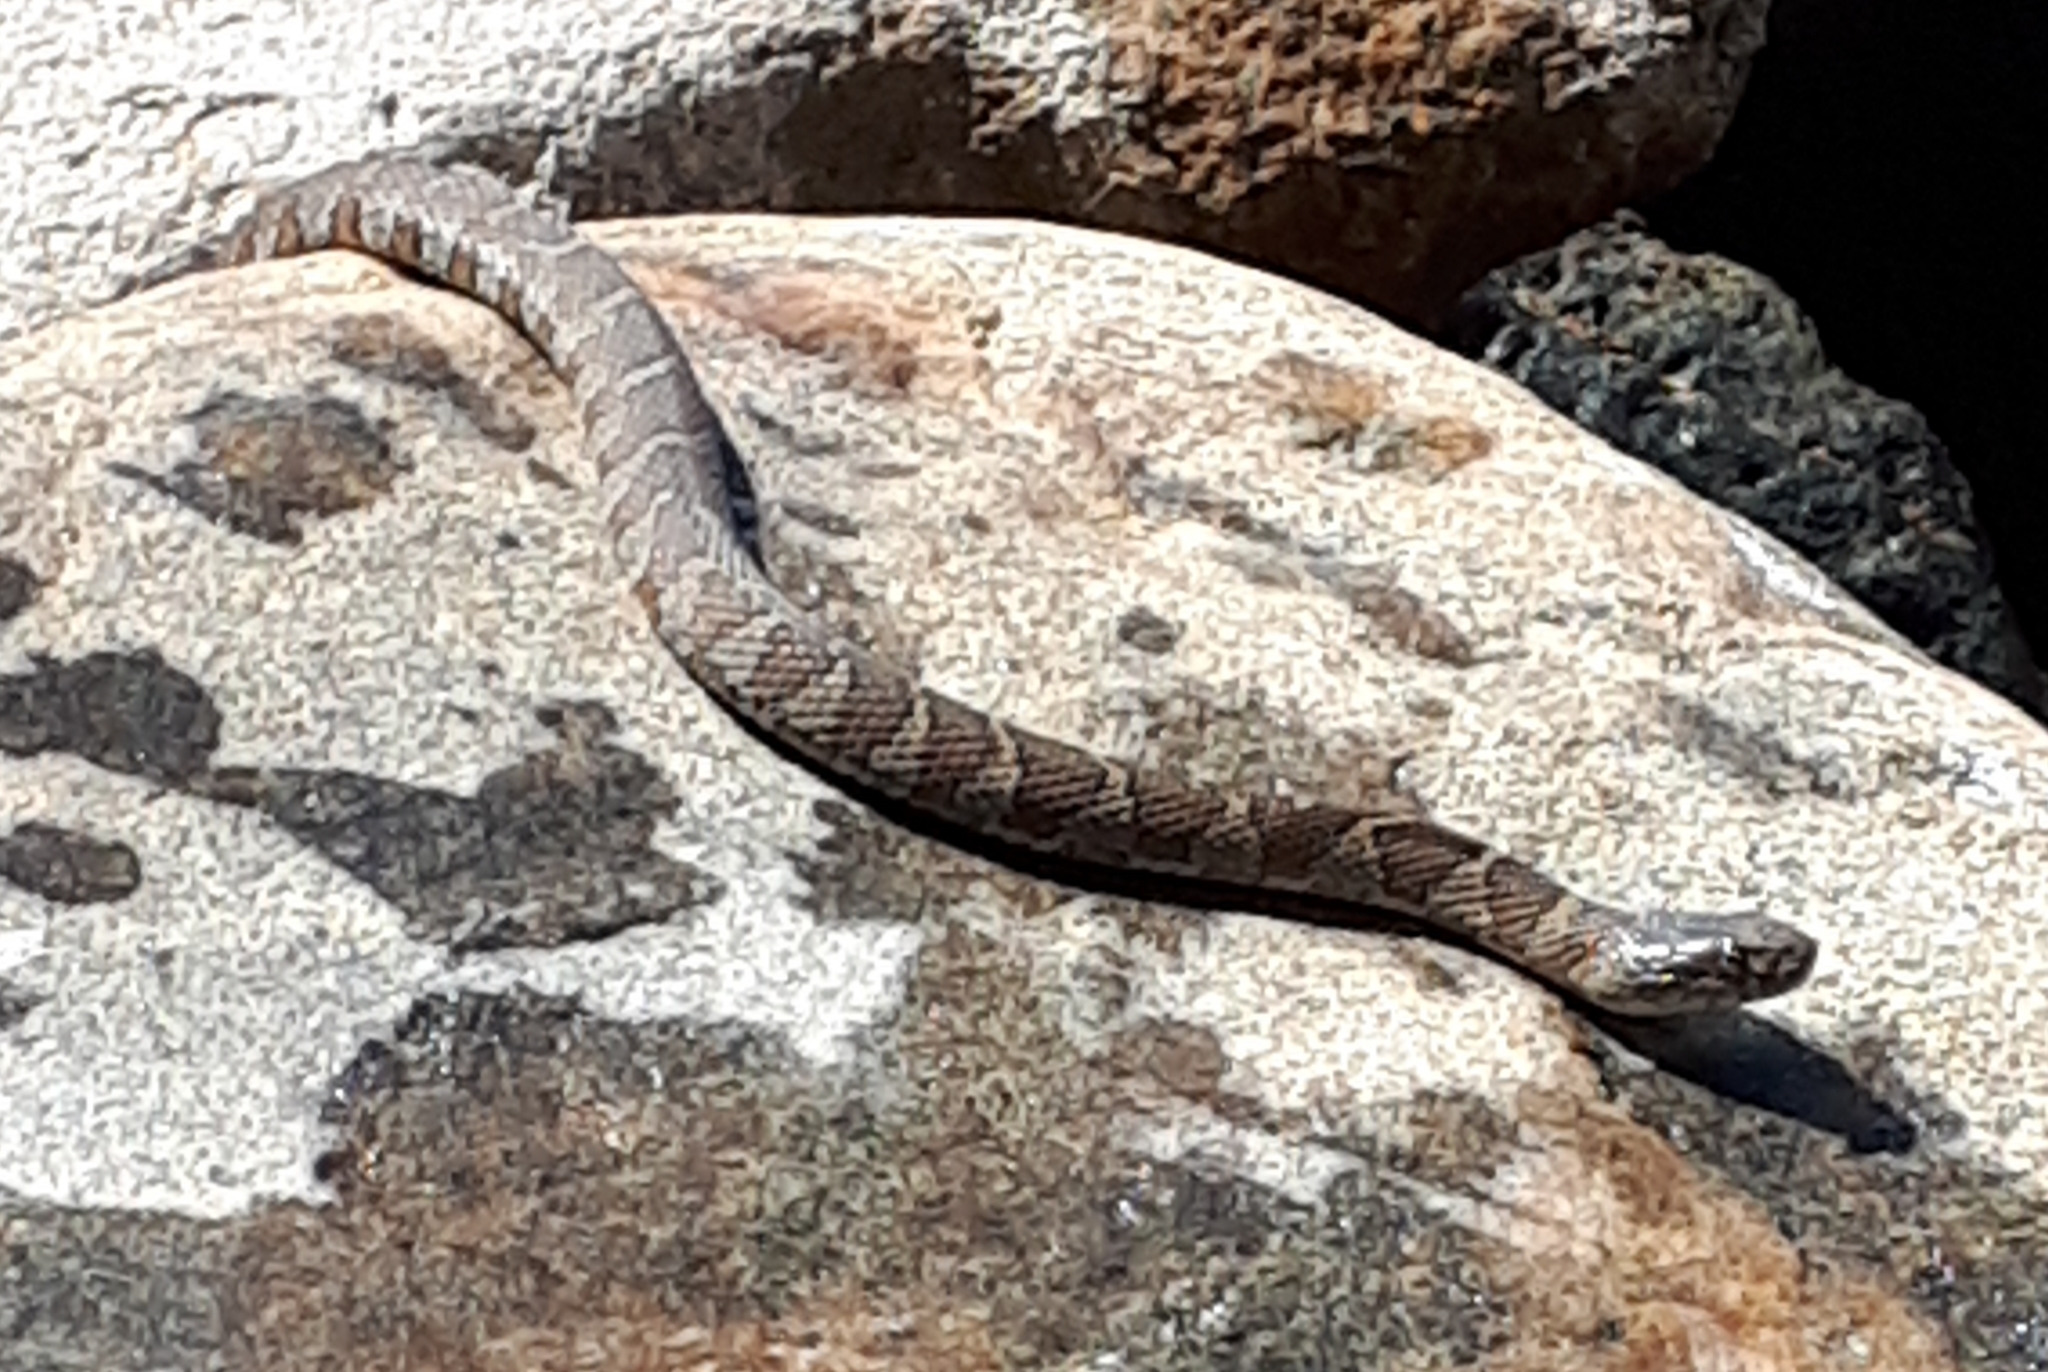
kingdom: Animalia
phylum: Chordata
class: Squamata
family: Colubridae
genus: Nerodia
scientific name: Nerodia sipedon
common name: Northern water snake
